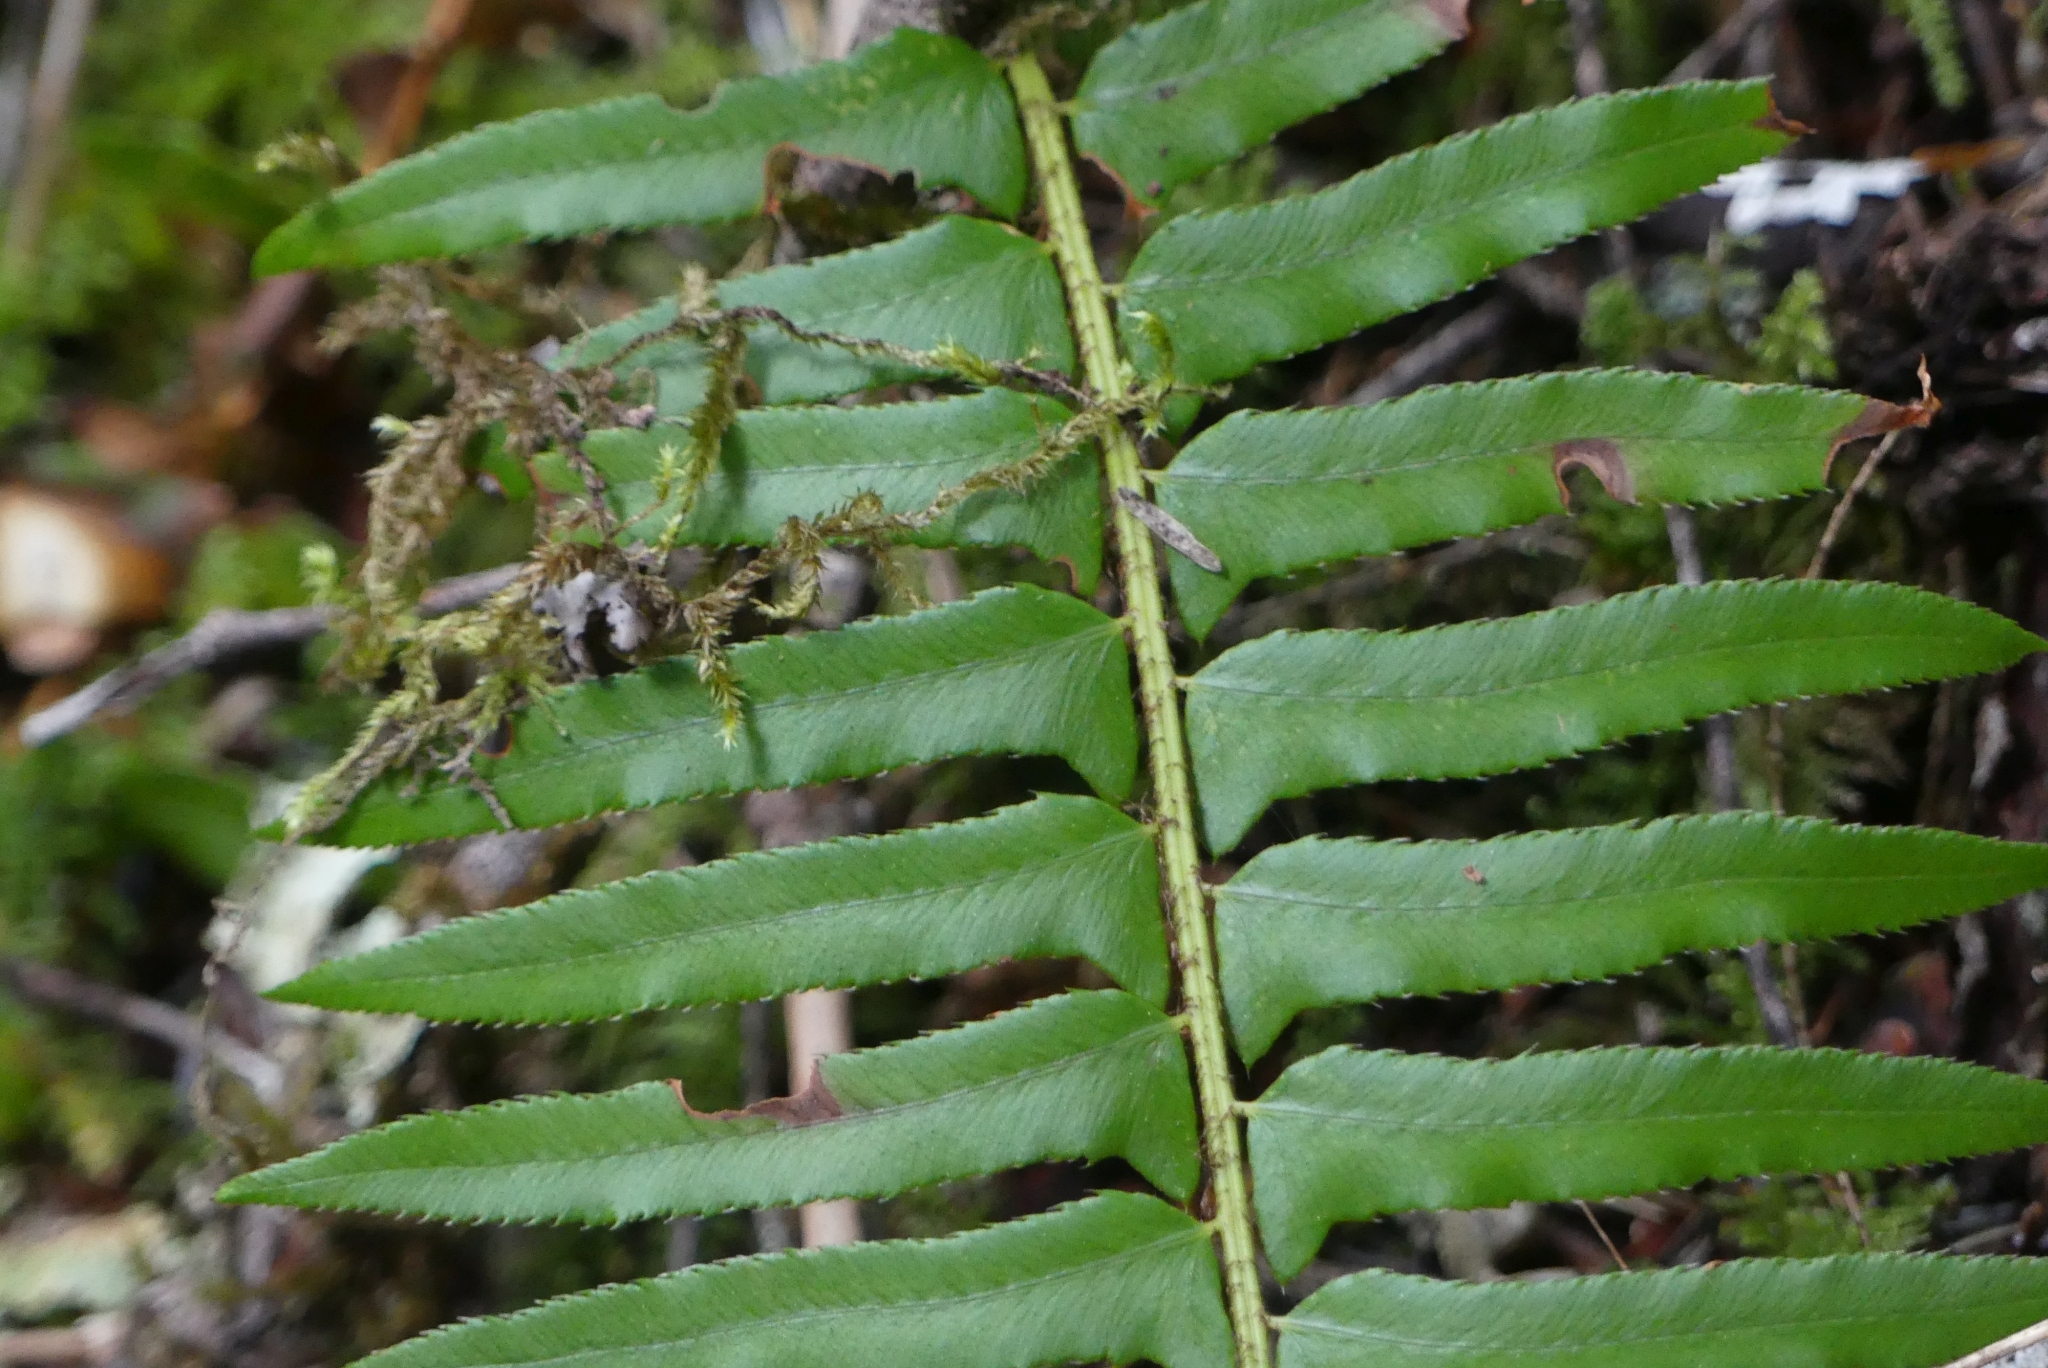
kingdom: Plantae
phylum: Tracheophyta
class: Polypodiopsida
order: Polypodiales
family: Dryopteridaceae
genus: Polystichum
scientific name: Polystichum munitum
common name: Western sword-fern
